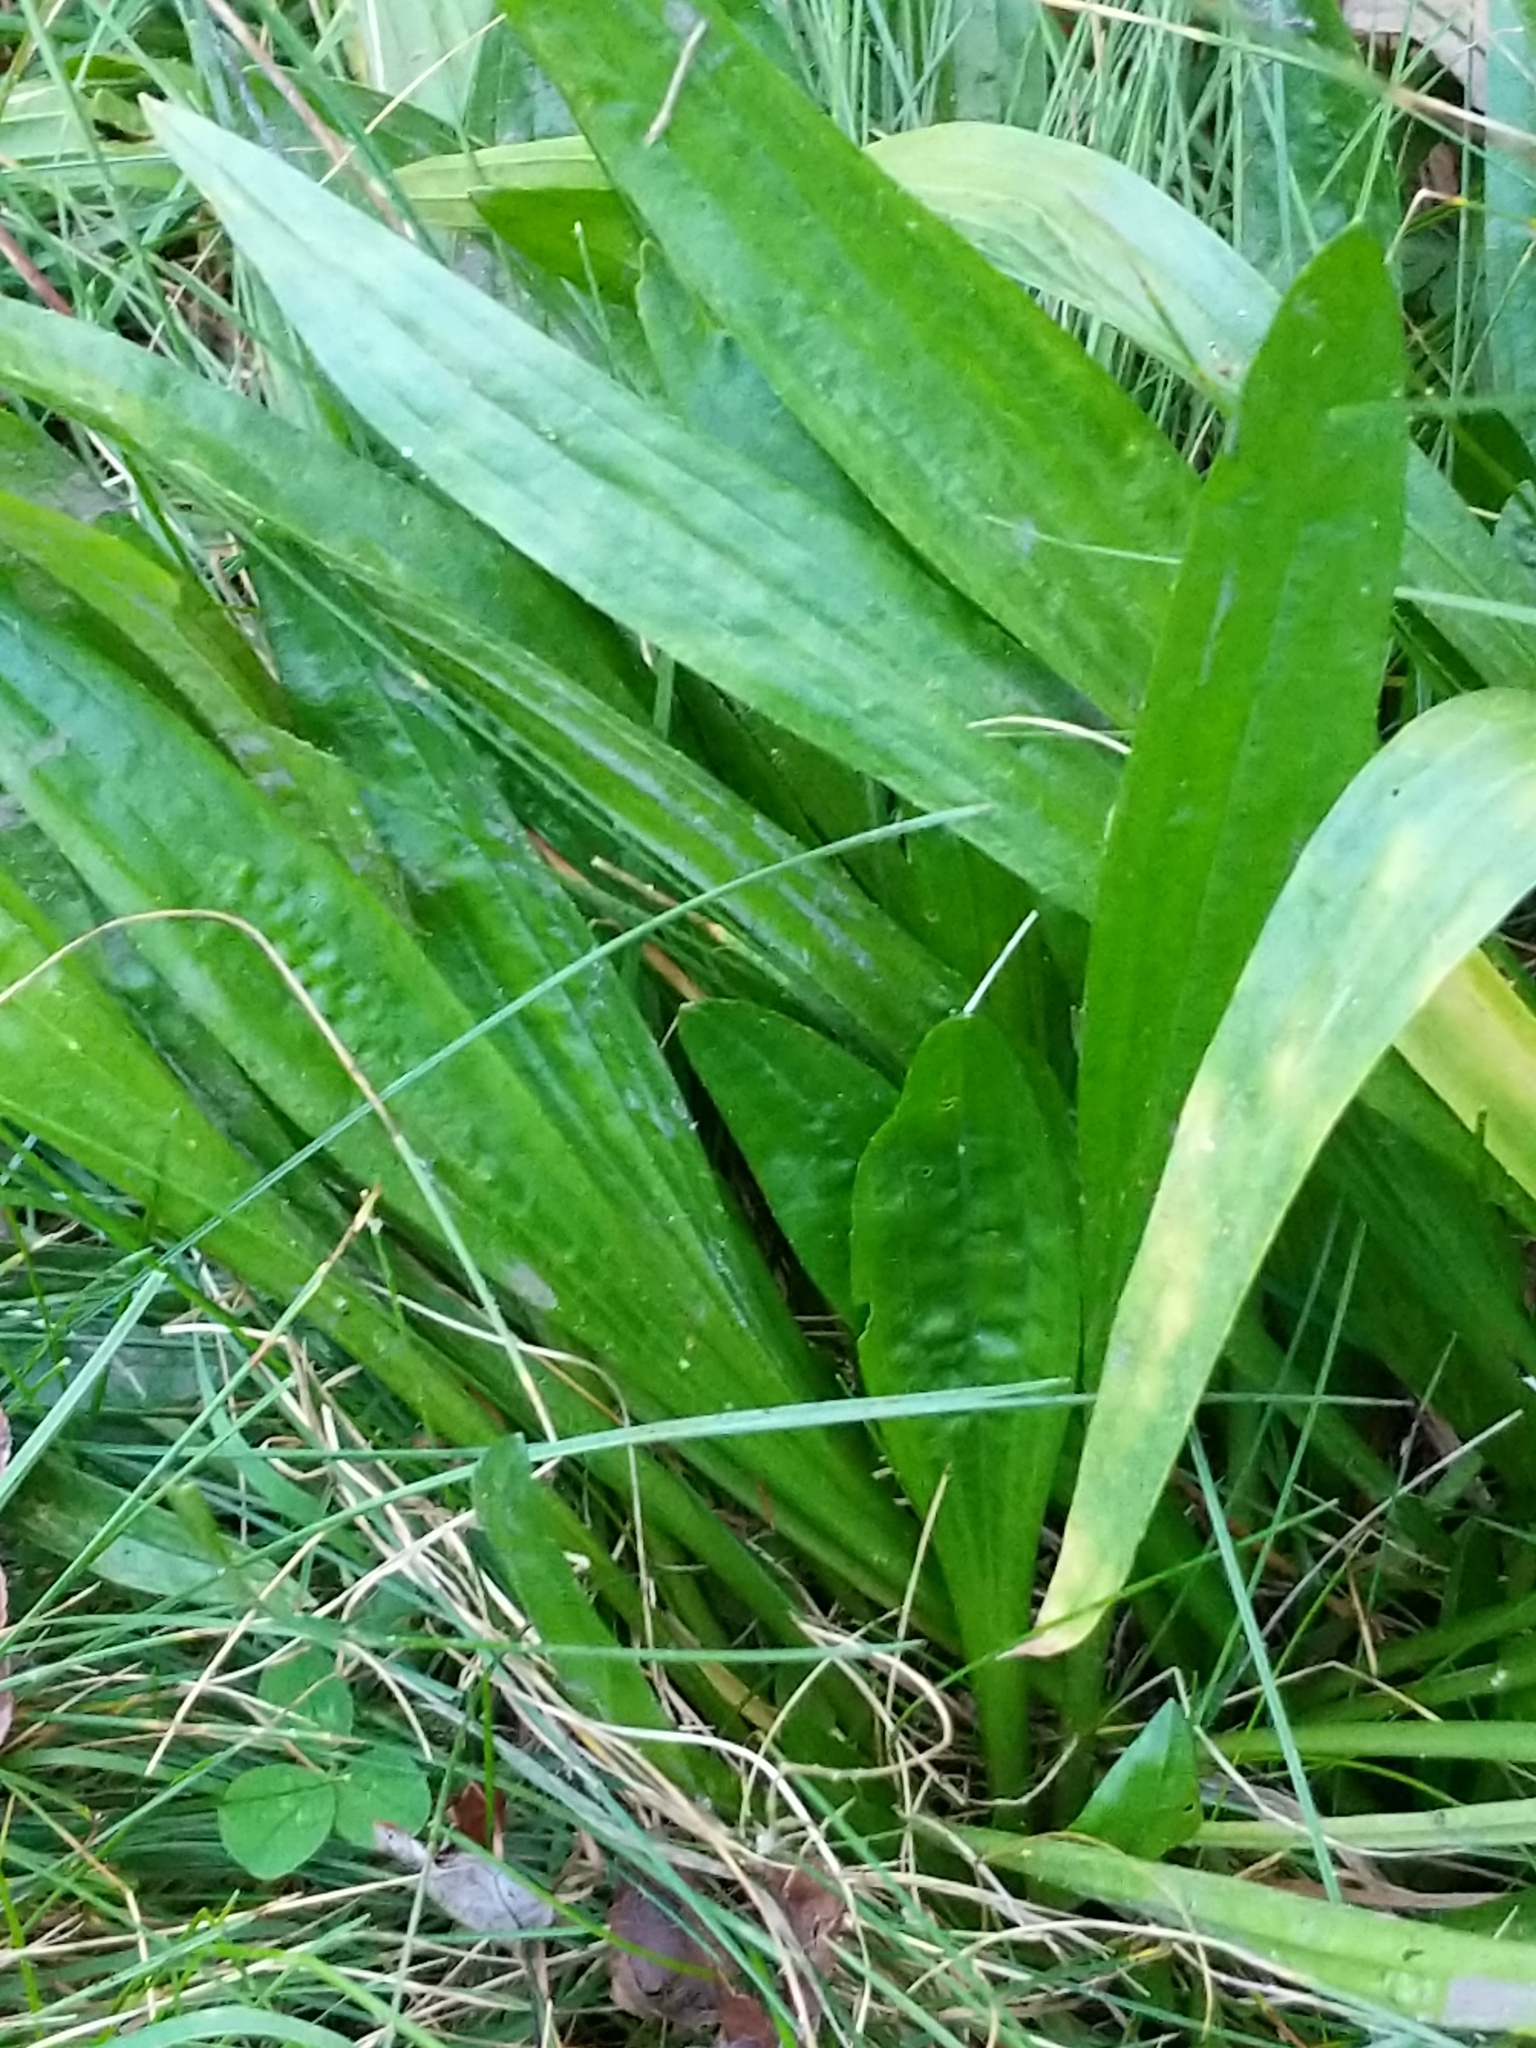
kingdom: Plantae
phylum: Tracheophyta
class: Magnoliopsida
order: Lamiales
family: Plantaginaceae
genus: Plantago
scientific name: Plantago lanceolata
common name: Ribwort plantain
